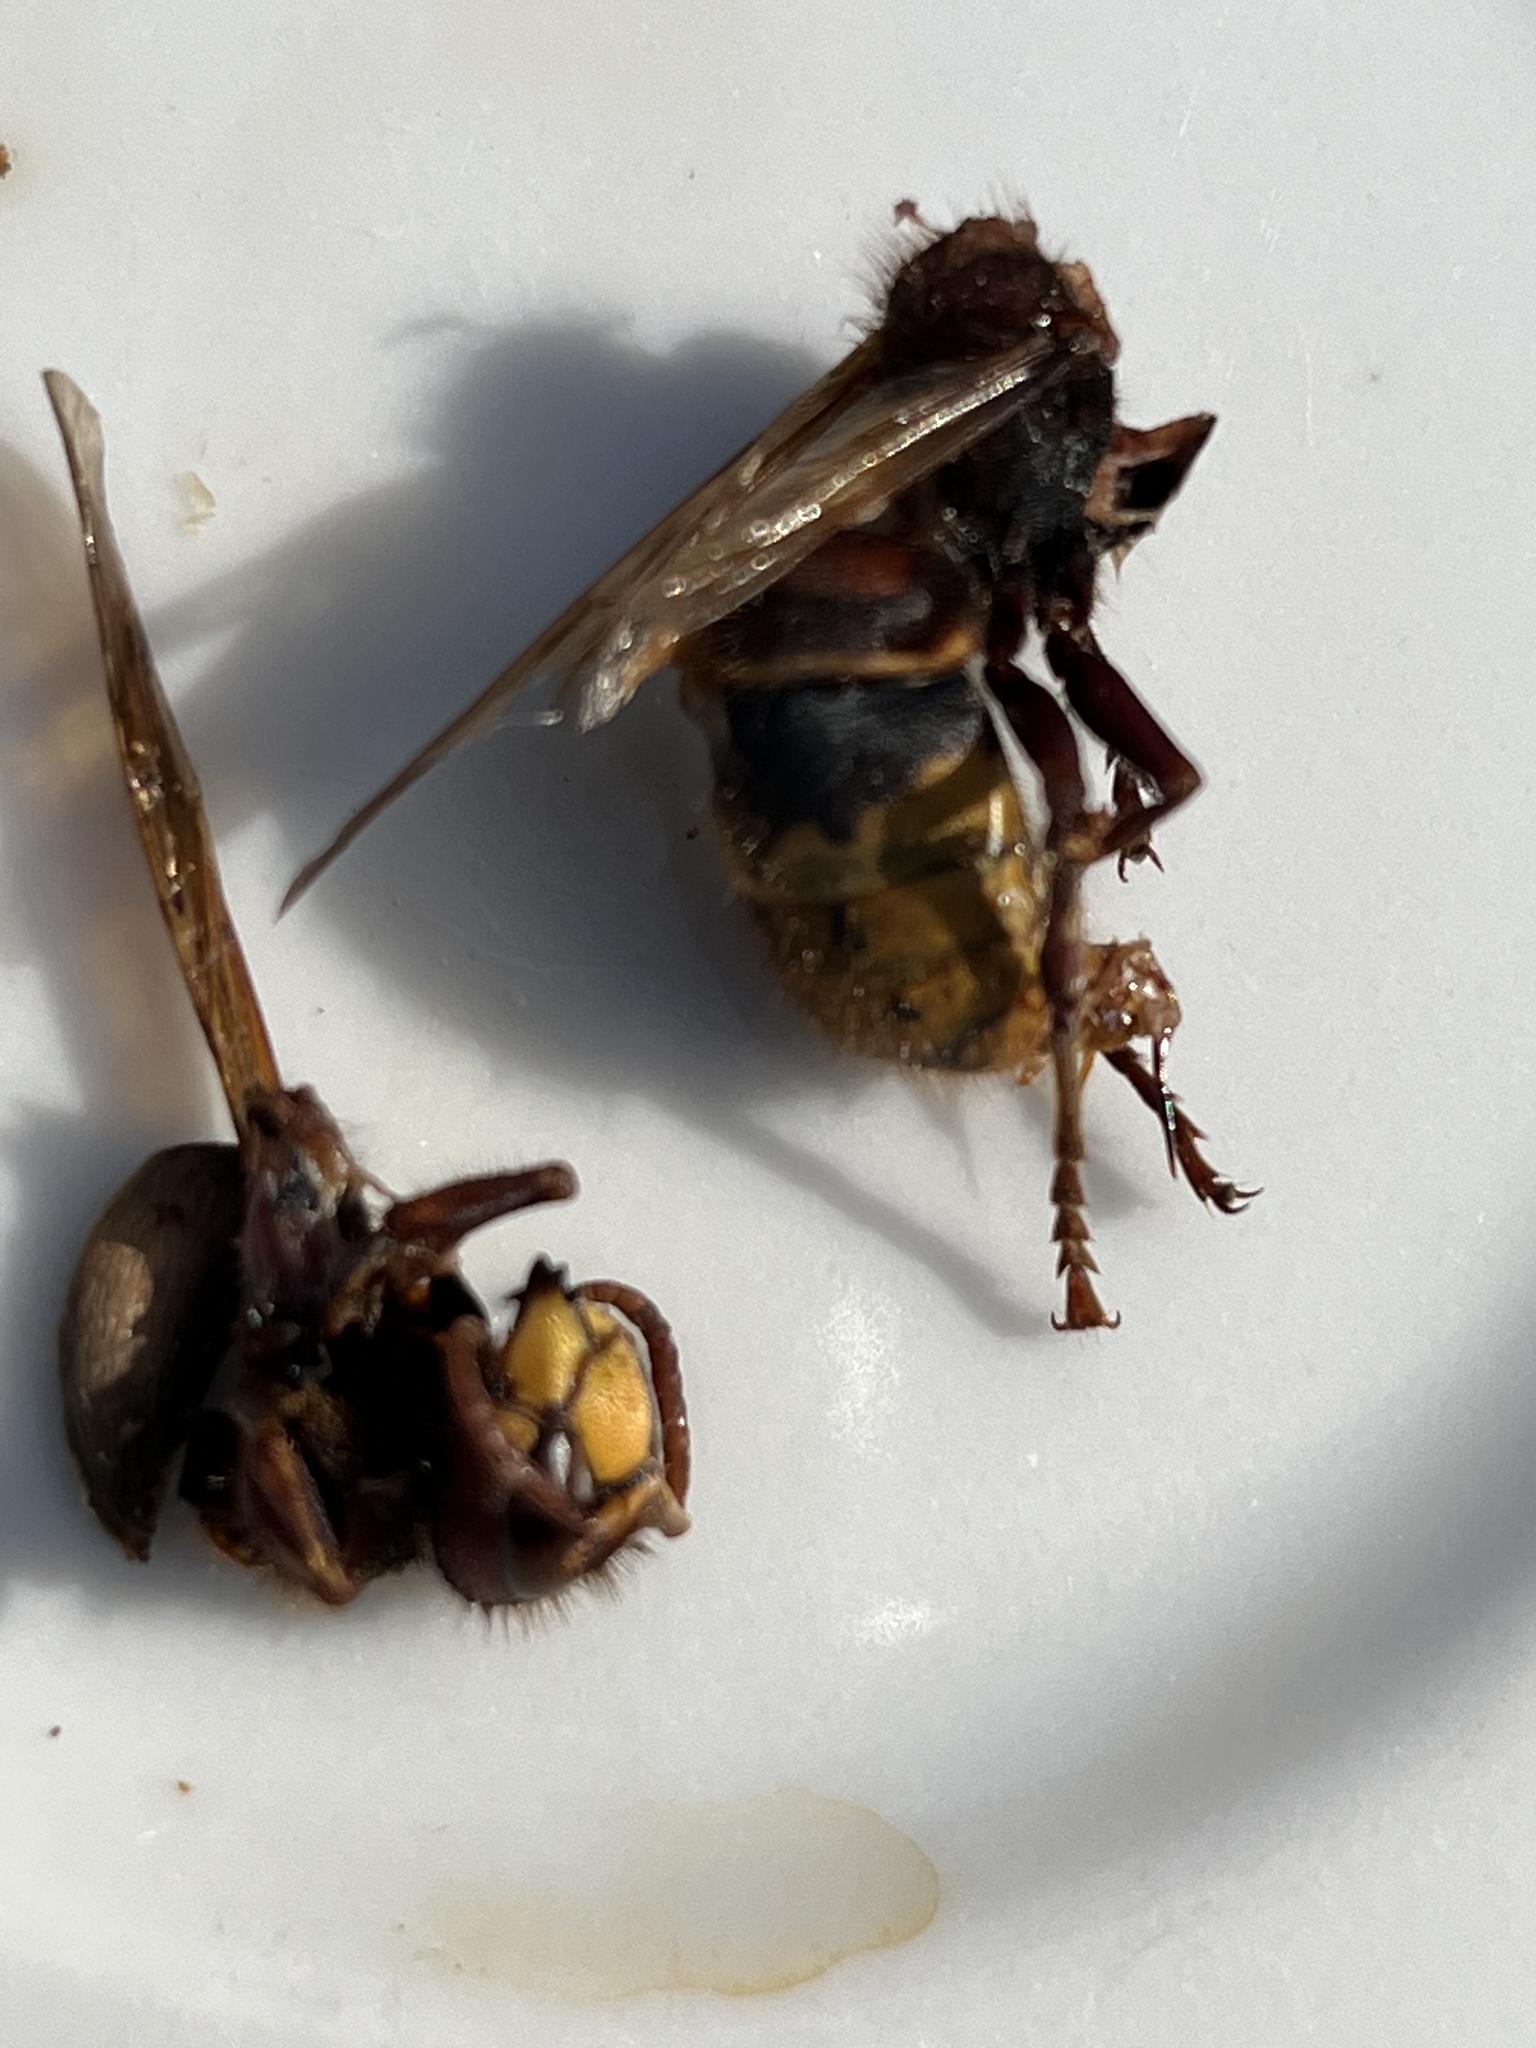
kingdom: Animalia
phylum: Arthropoda
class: Insecta
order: Hymenoptera
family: Vespidae
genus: Vespa
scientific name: Vespa crabro
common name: Hornet
